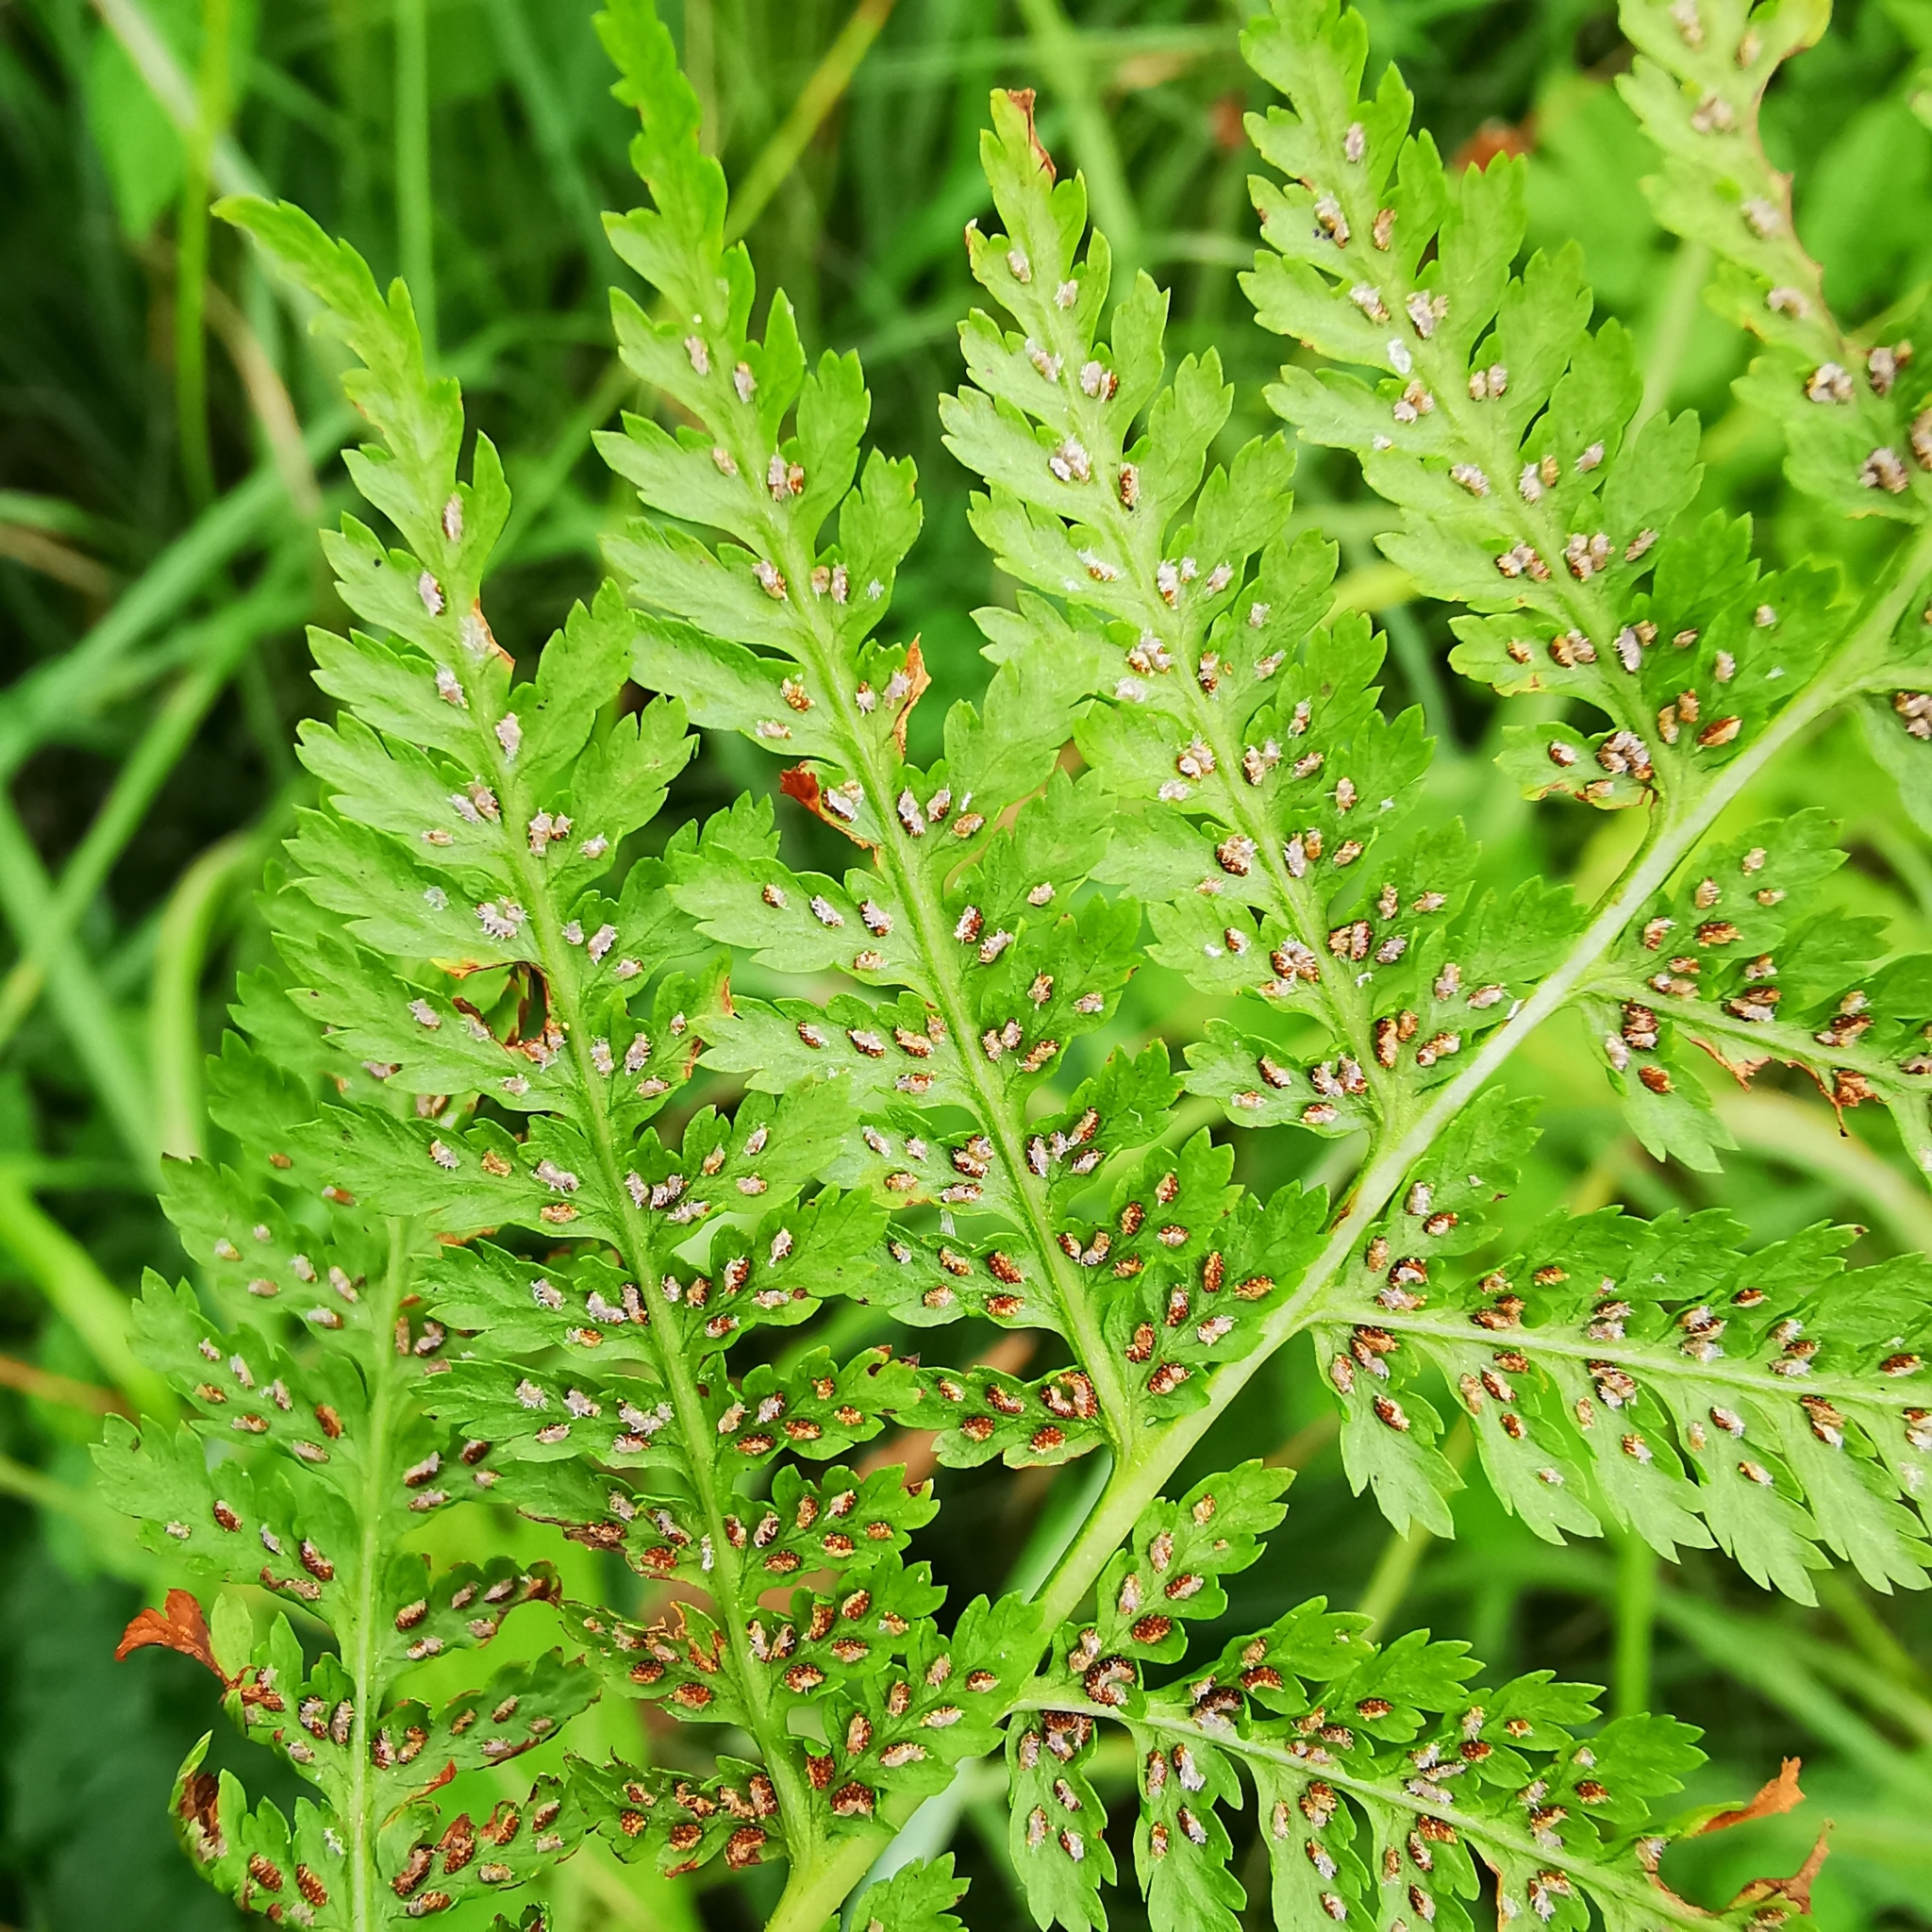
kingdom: Plantae
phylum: Tracheophyta
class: Polypodiopsida
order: Polypodiales
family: Athyriaceae
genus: Athyrium
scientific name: Athyrium filix-femina
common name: Lady fern
